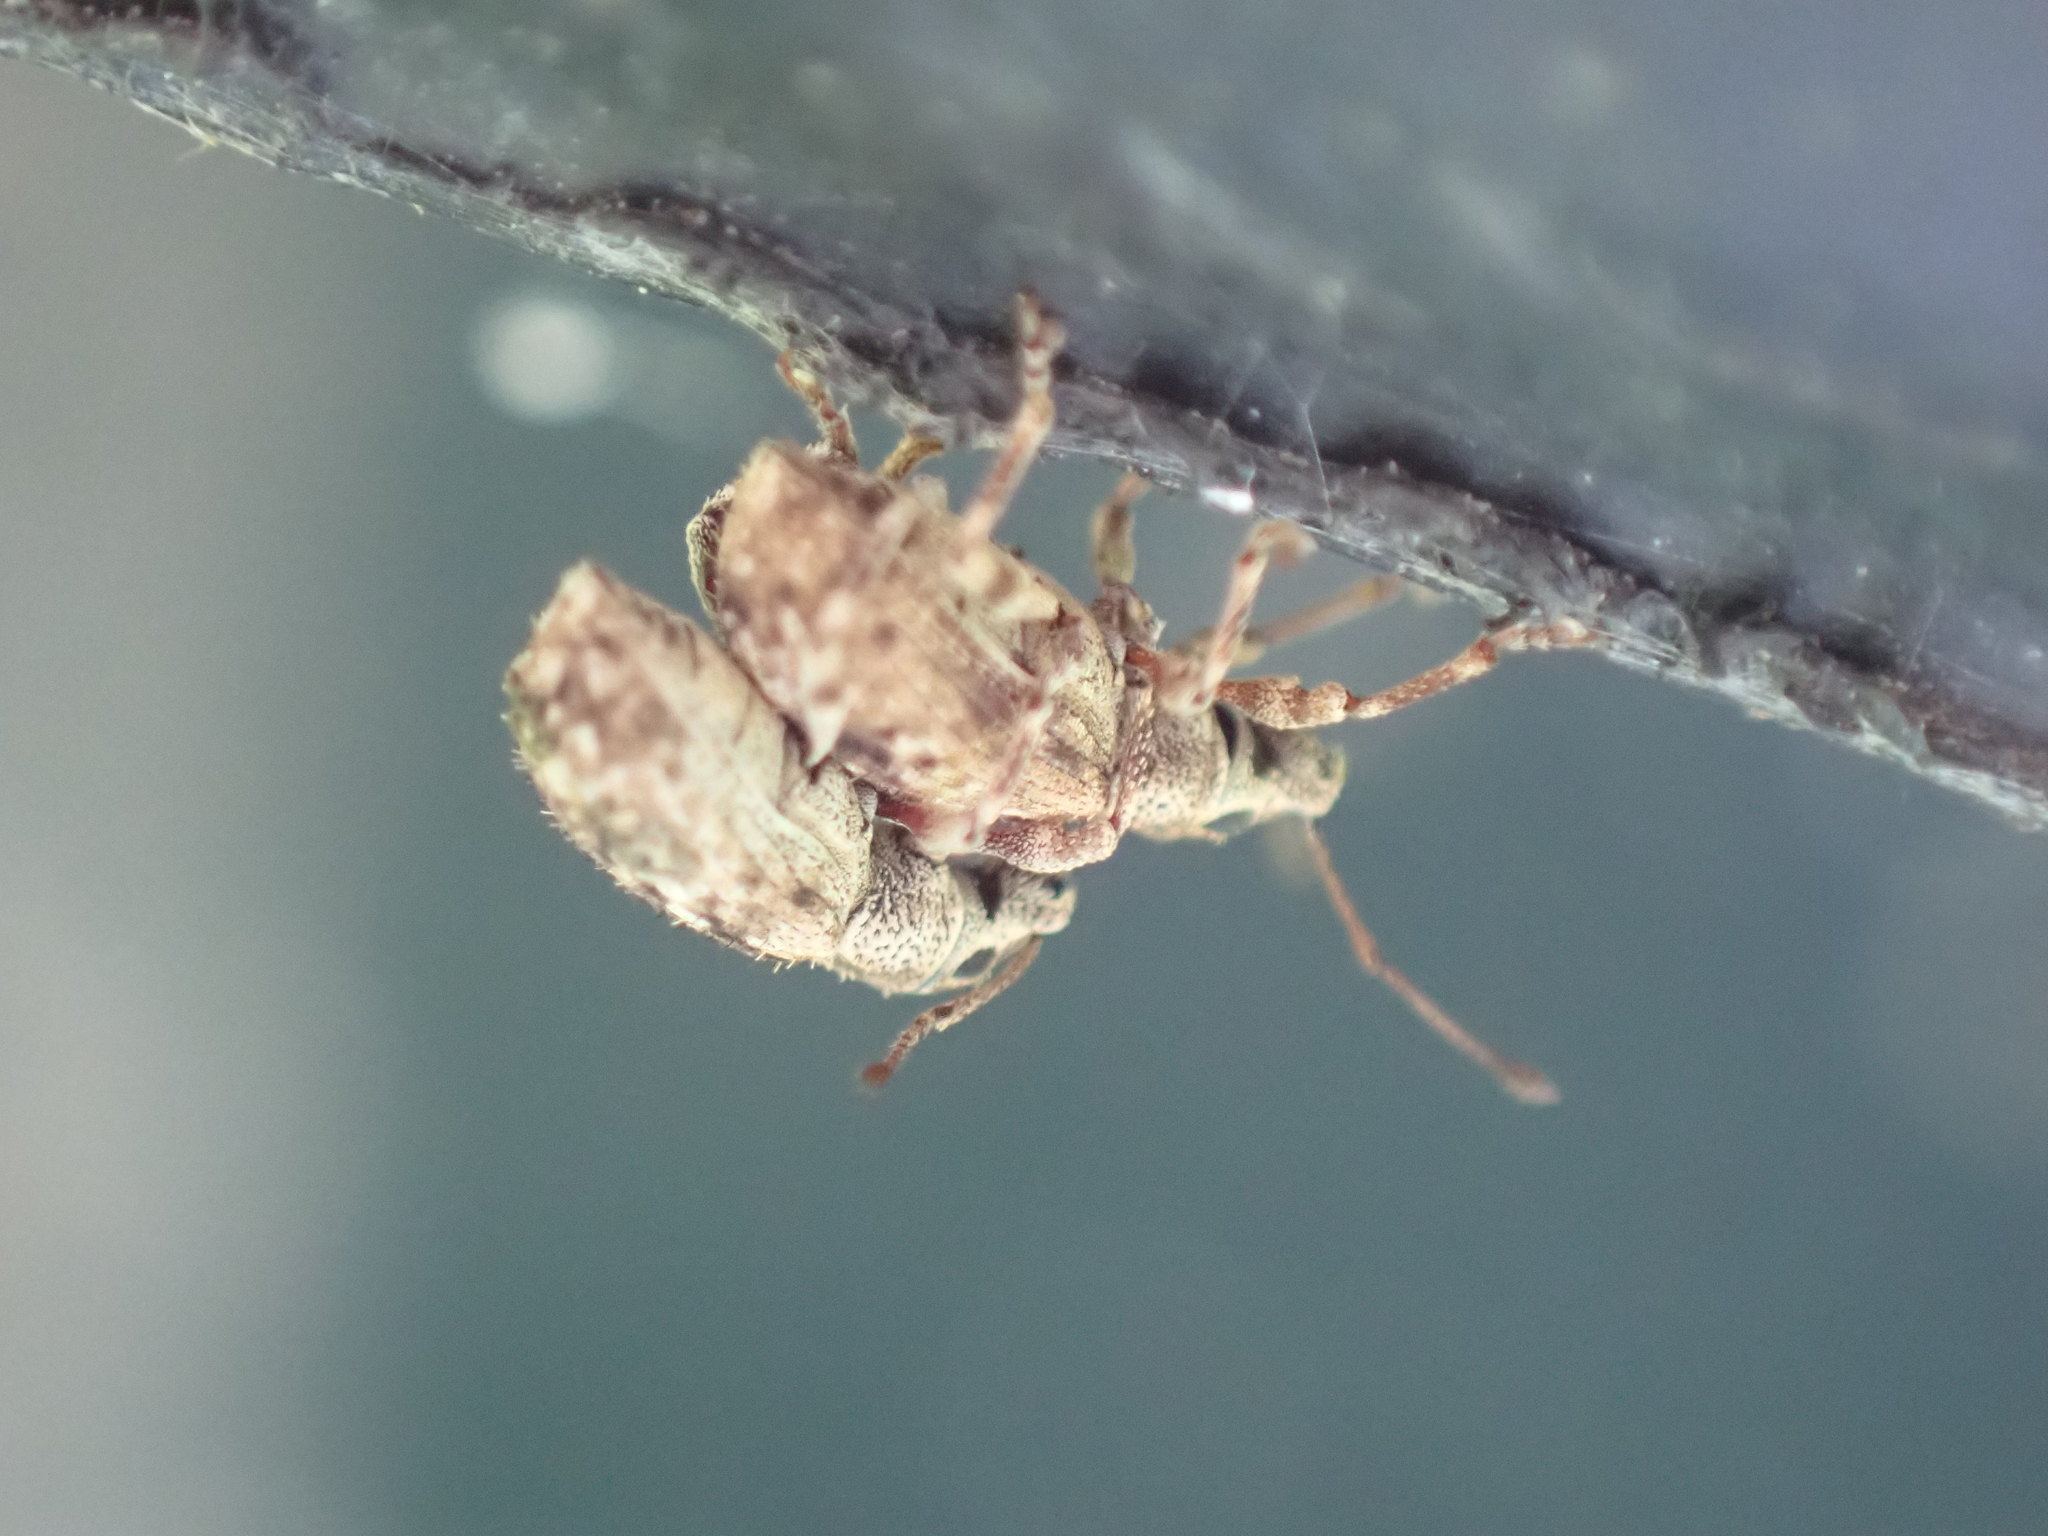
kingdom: Animalia
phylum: Arthropoda
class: Insecta
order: Coleoptera
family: Curculionidae
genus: Pseudoedophrys
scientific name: Pseudoedophrys hilleri
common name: Weevil
